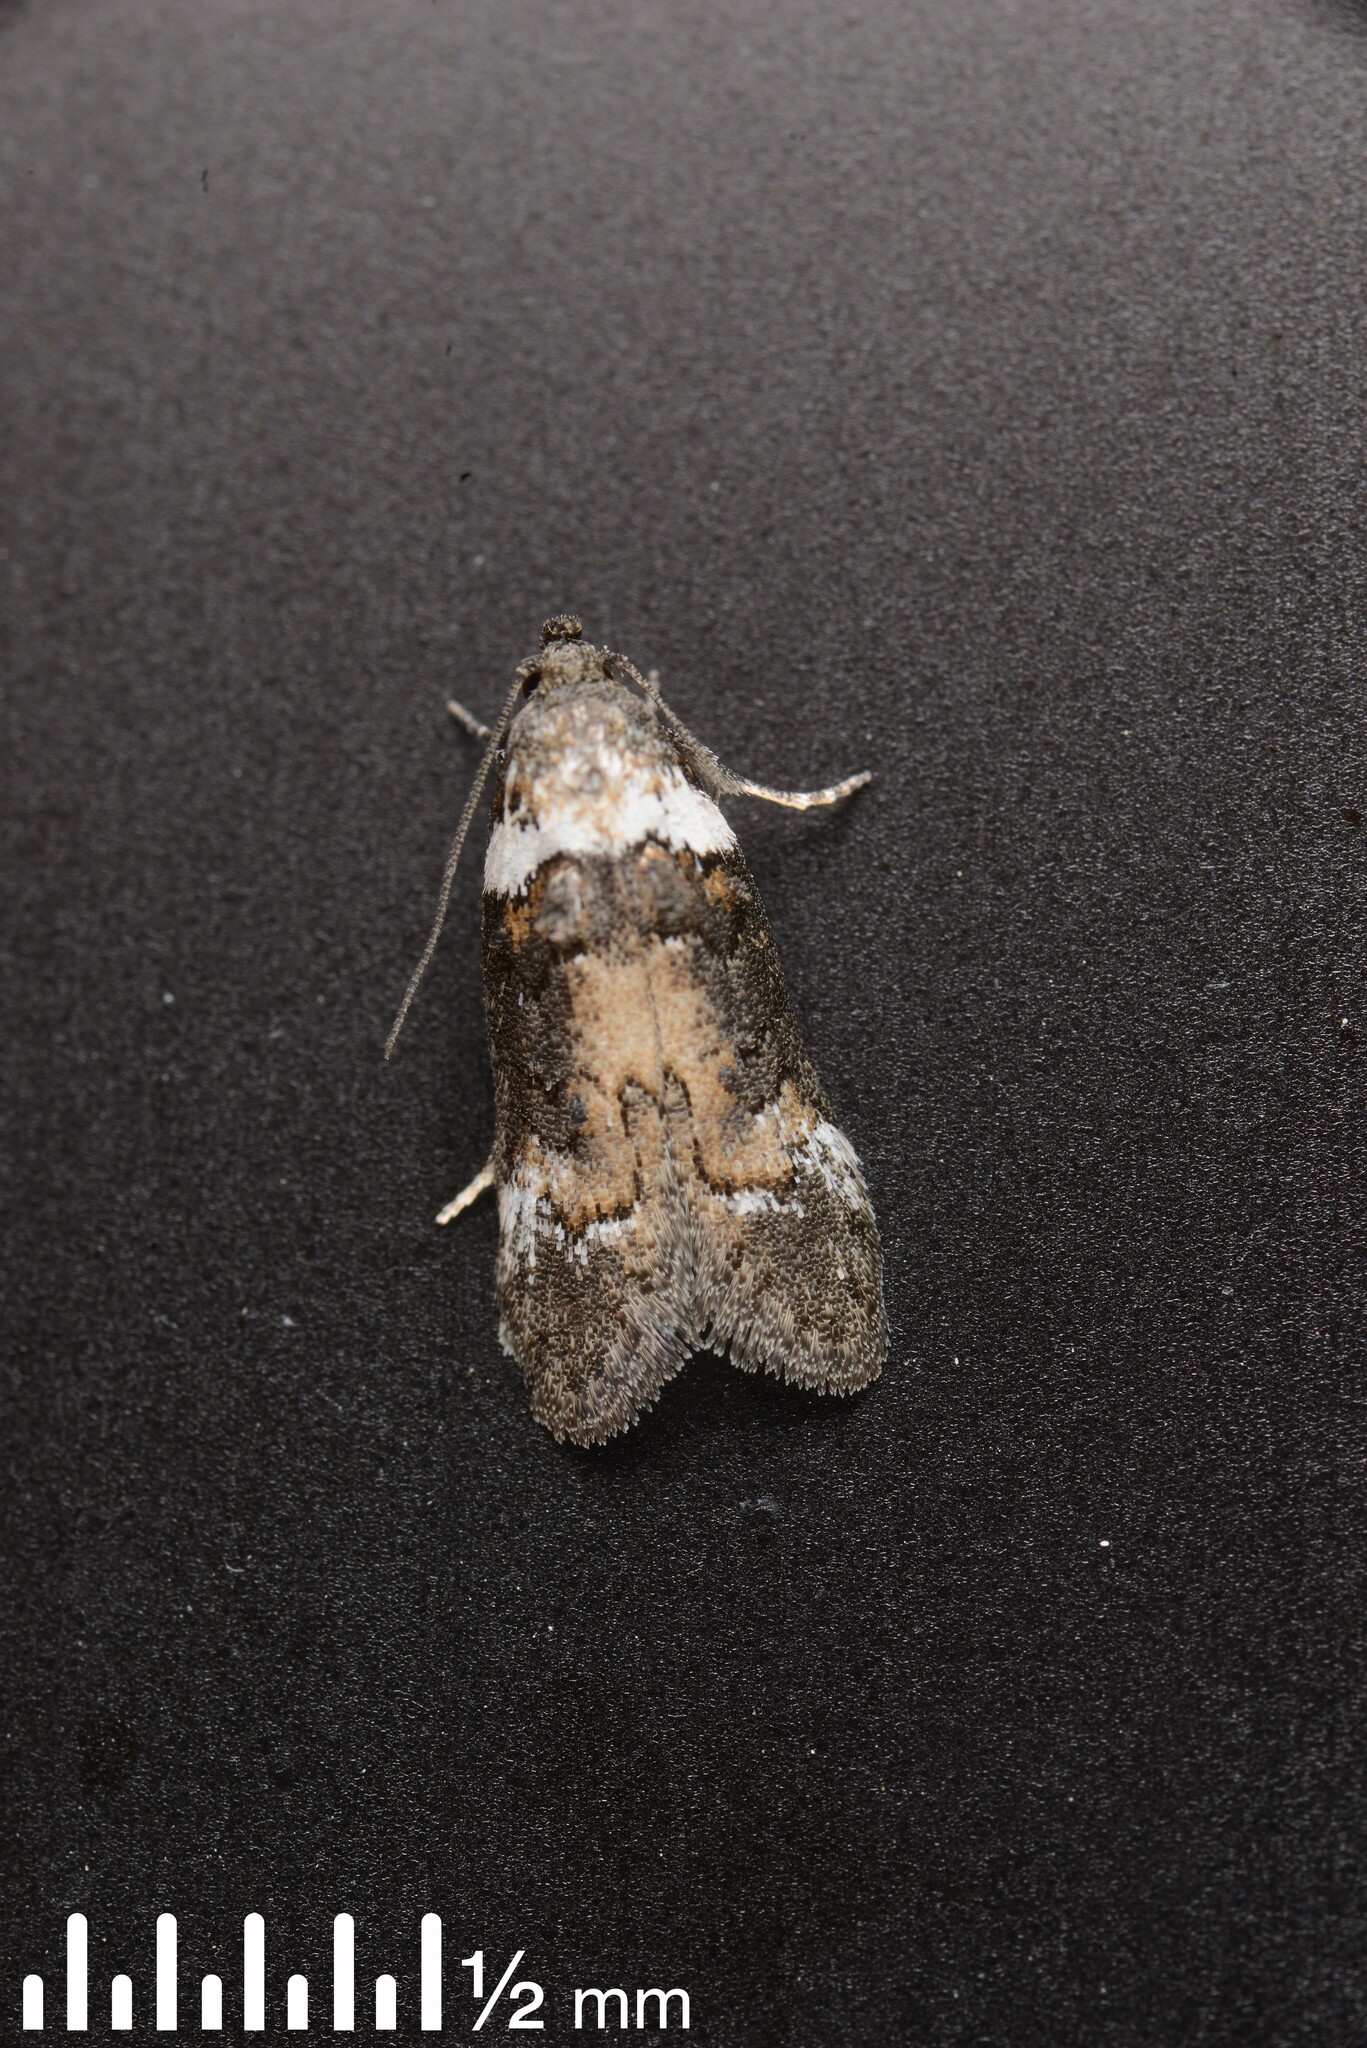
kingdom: Animalia
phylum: Arthropoda
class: Insecta
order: Lepidoptera
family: Oecophoridae
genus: Trachypepla
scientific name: Trachypepla conspicuella
